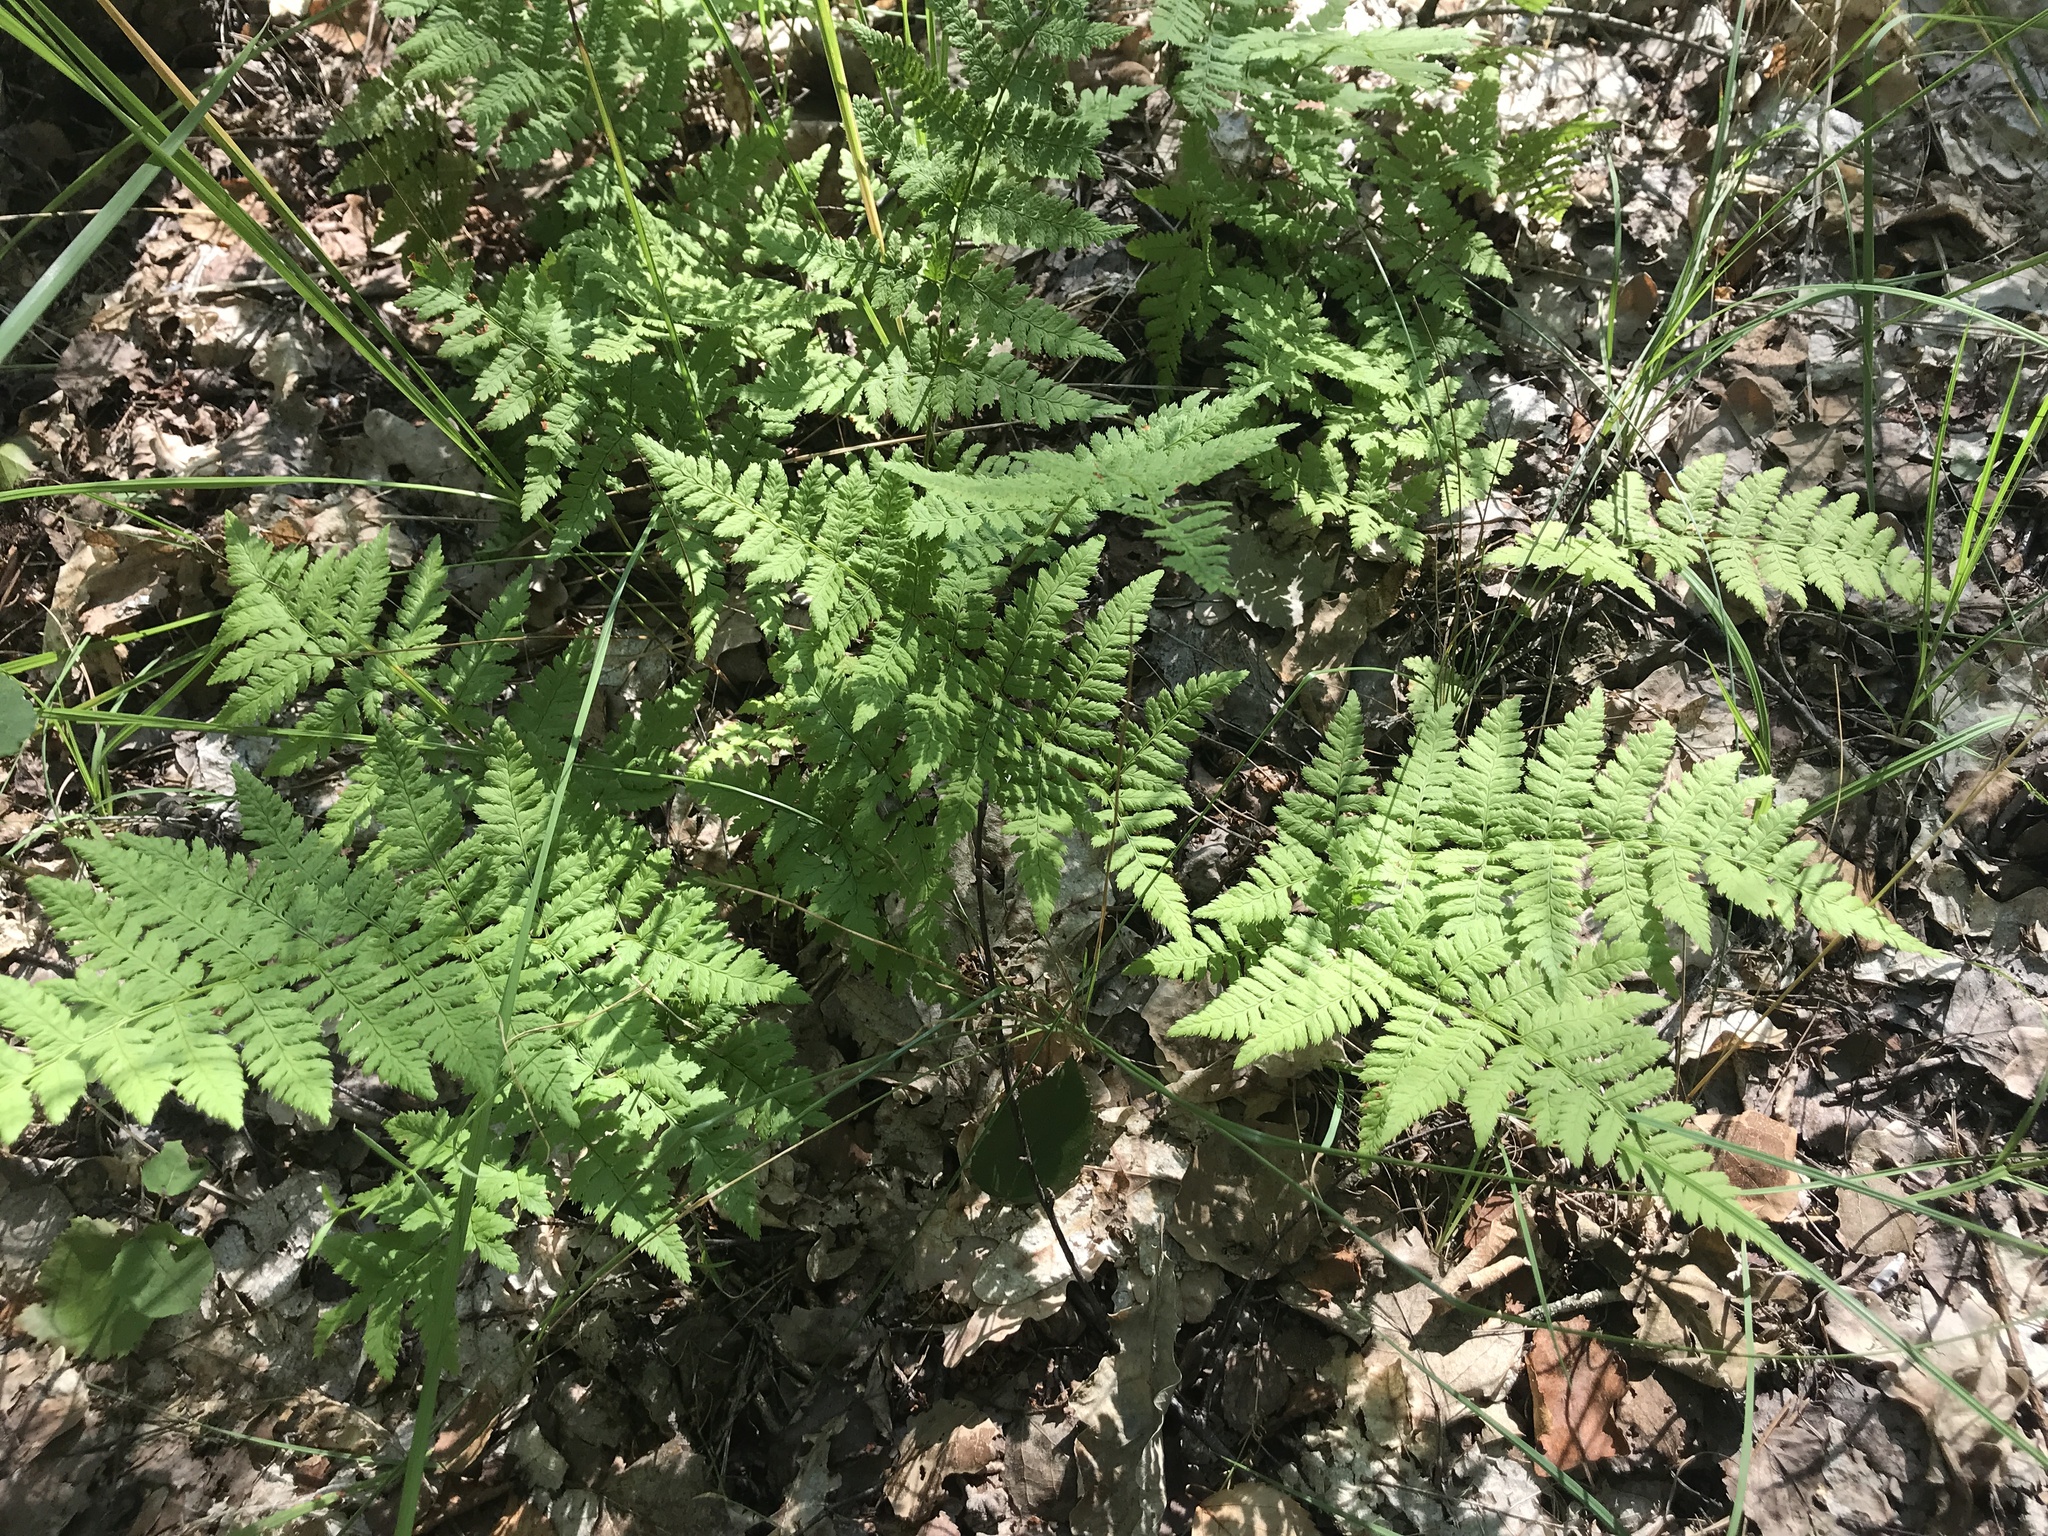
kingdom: Plantae
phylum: Tracheophyta
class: Polypodiopsida
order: Polypodiales
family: Dryopteridaceae
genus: Dryopteris
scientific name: Dryopteris carthusiana
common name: Narrow buckler-fern
